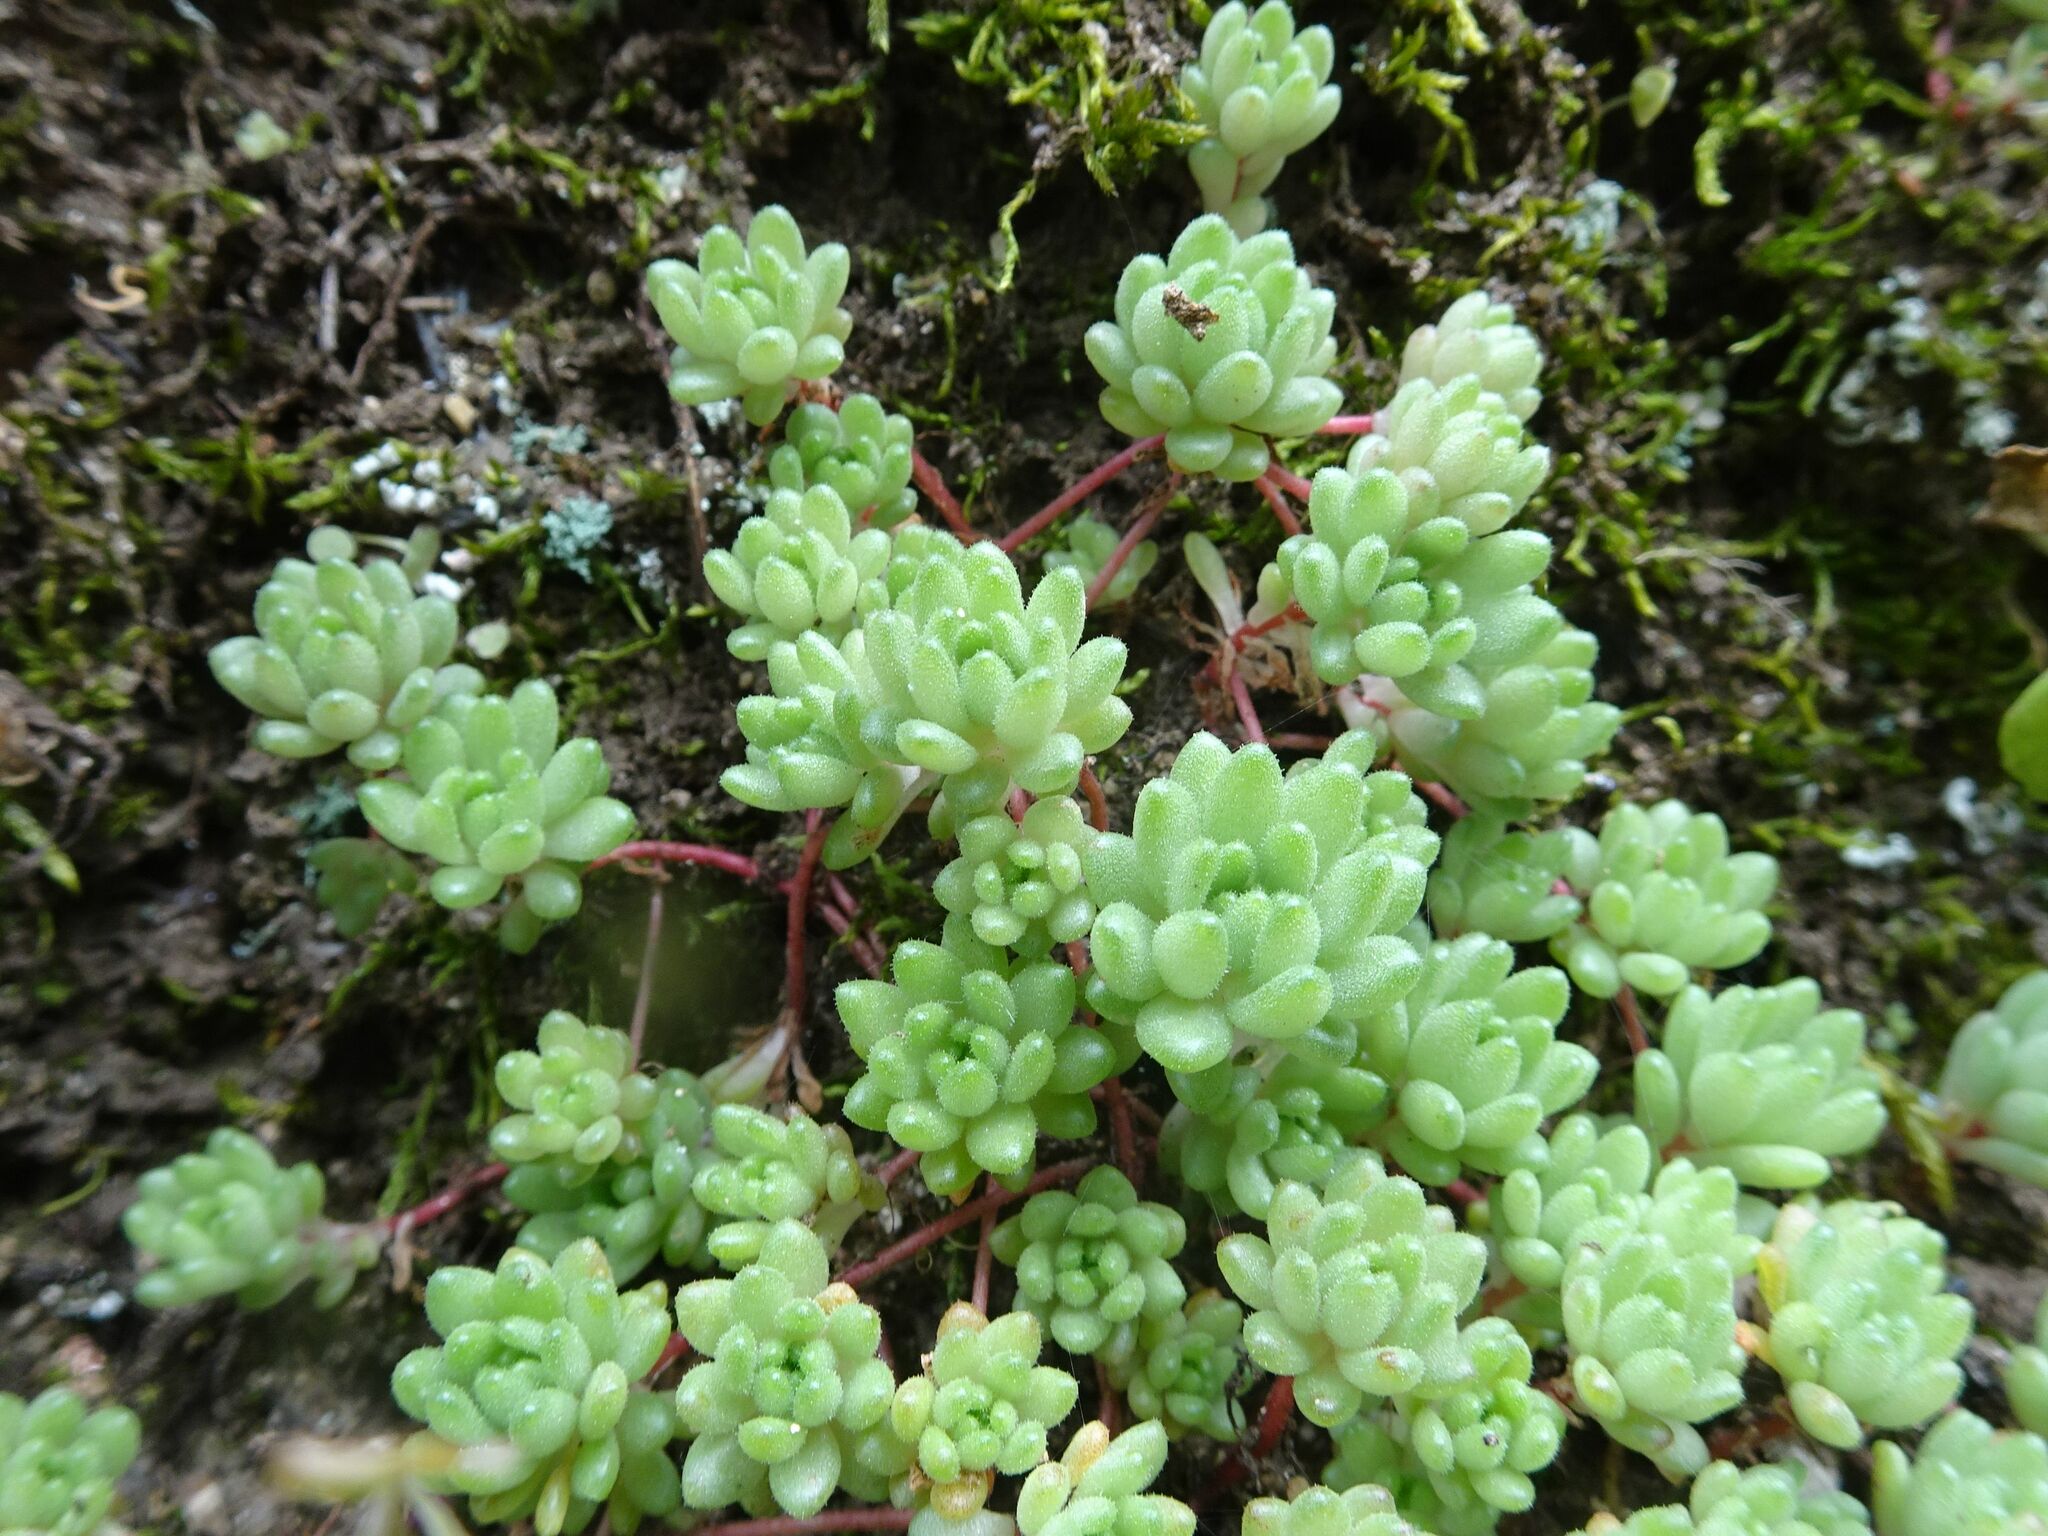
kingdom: Plantae
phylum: Tracheophyta
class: Magnoliopsida
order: Saxifragales
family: Crassulaceae
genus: Sedum
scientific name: Sedum hirsutum
